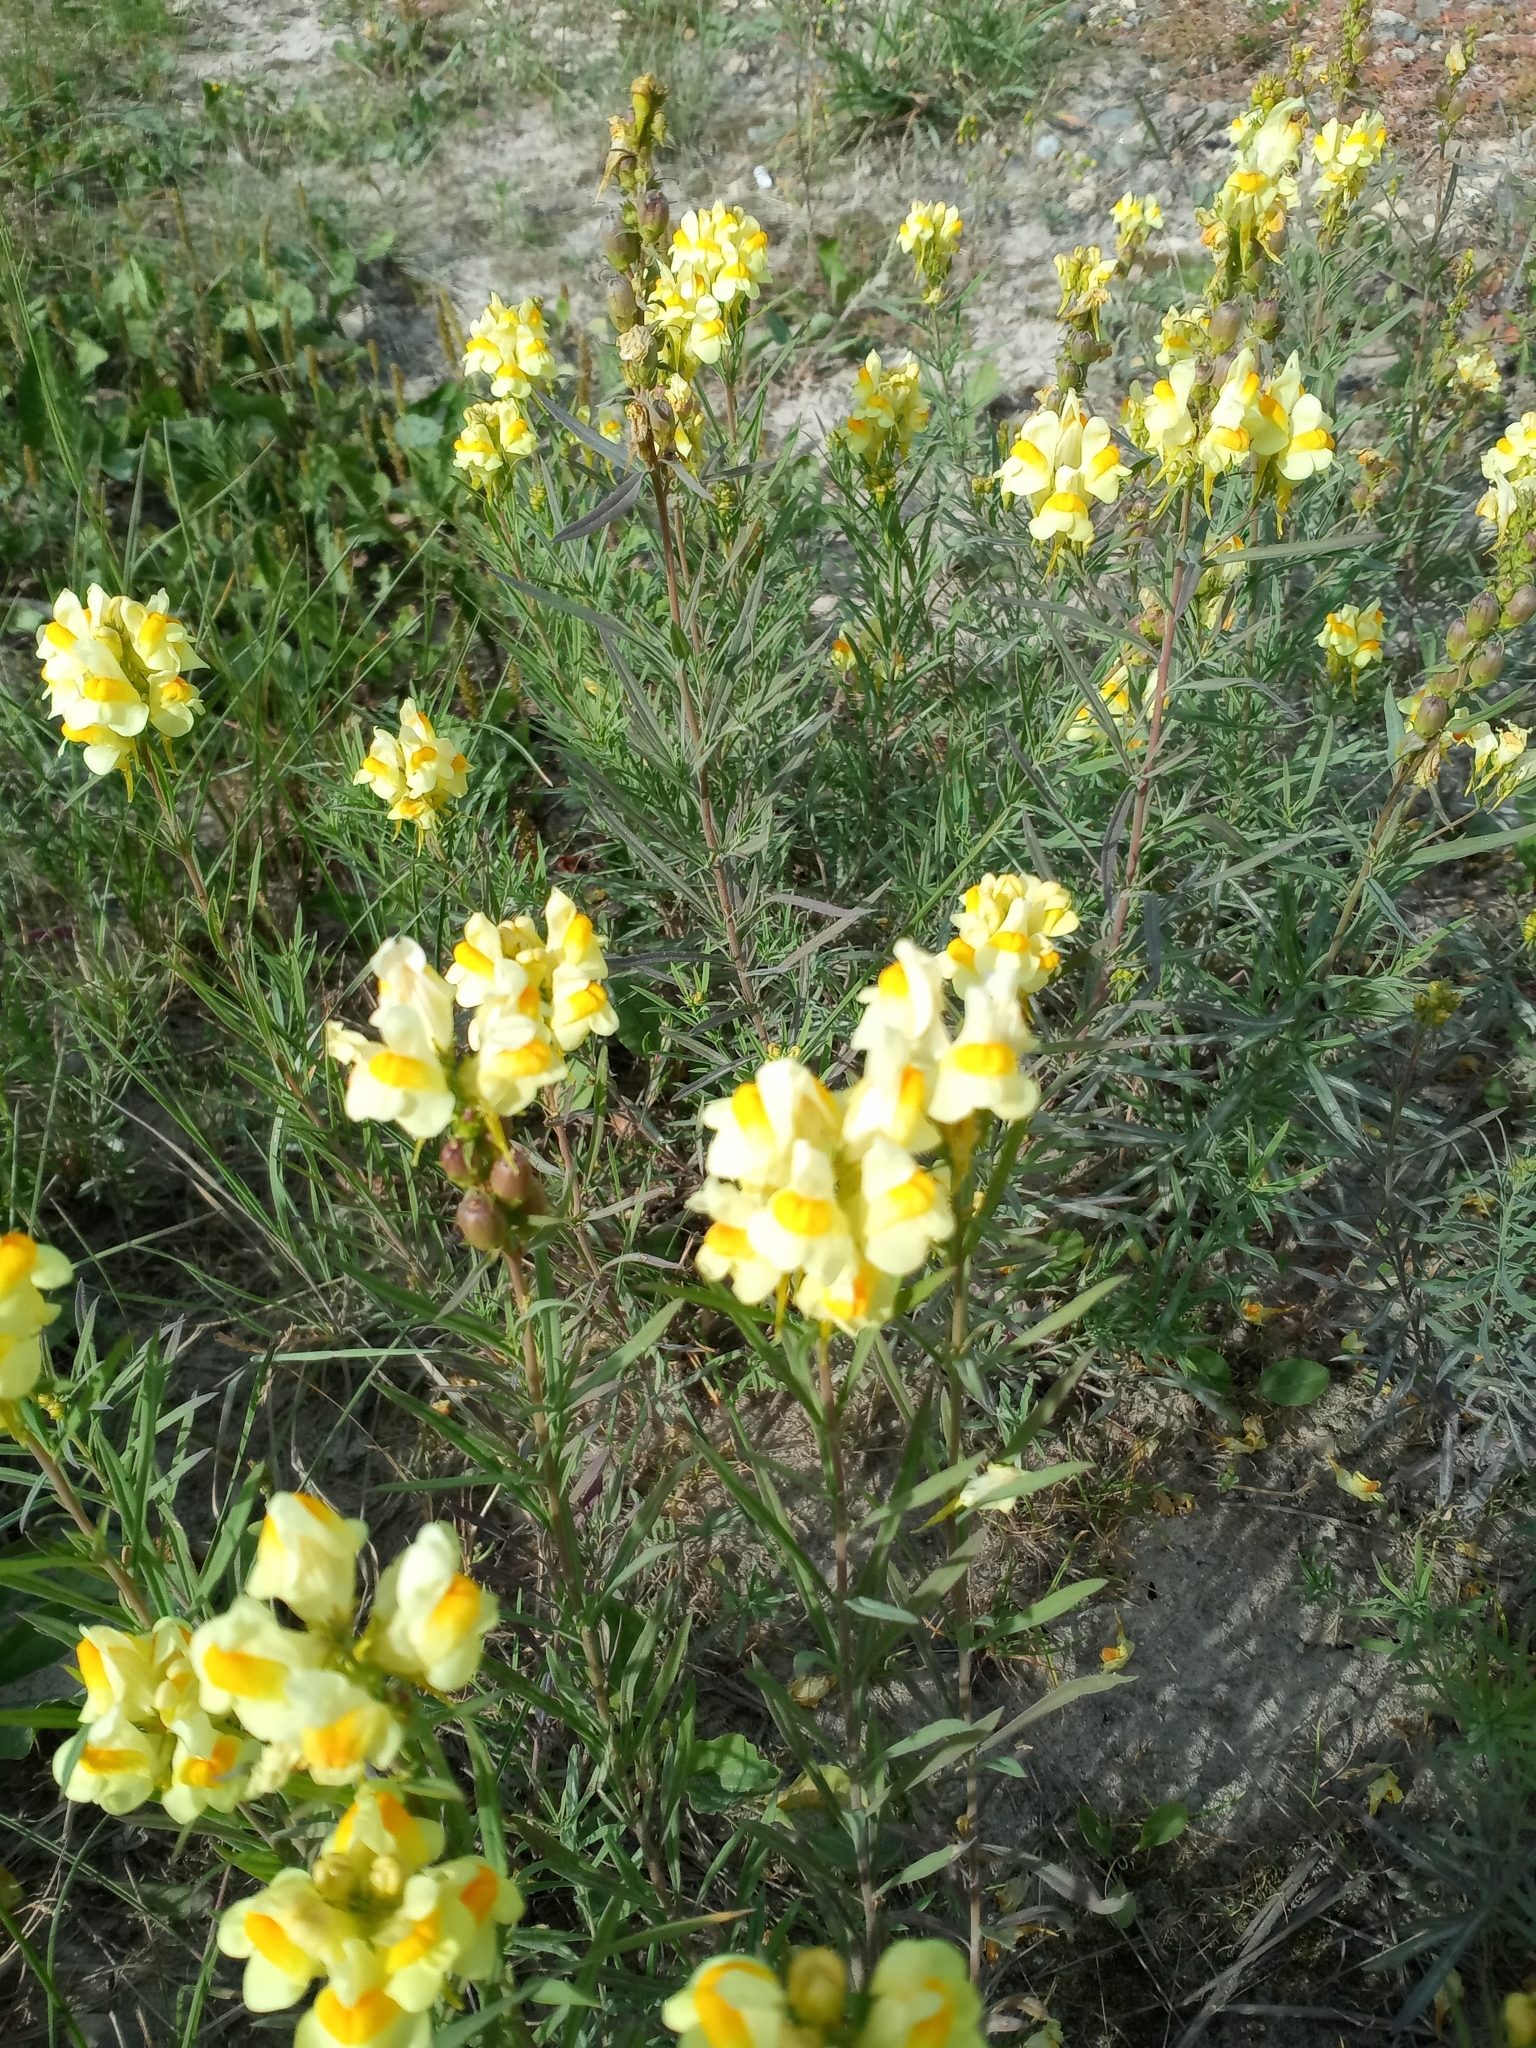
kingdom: Plantae
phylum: Tracheophyta
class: Magnoliopsida
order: Lamiales
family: Plantaginaceae
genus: Linaria
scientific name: Linaria vulgaris
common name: Butter and eggs
